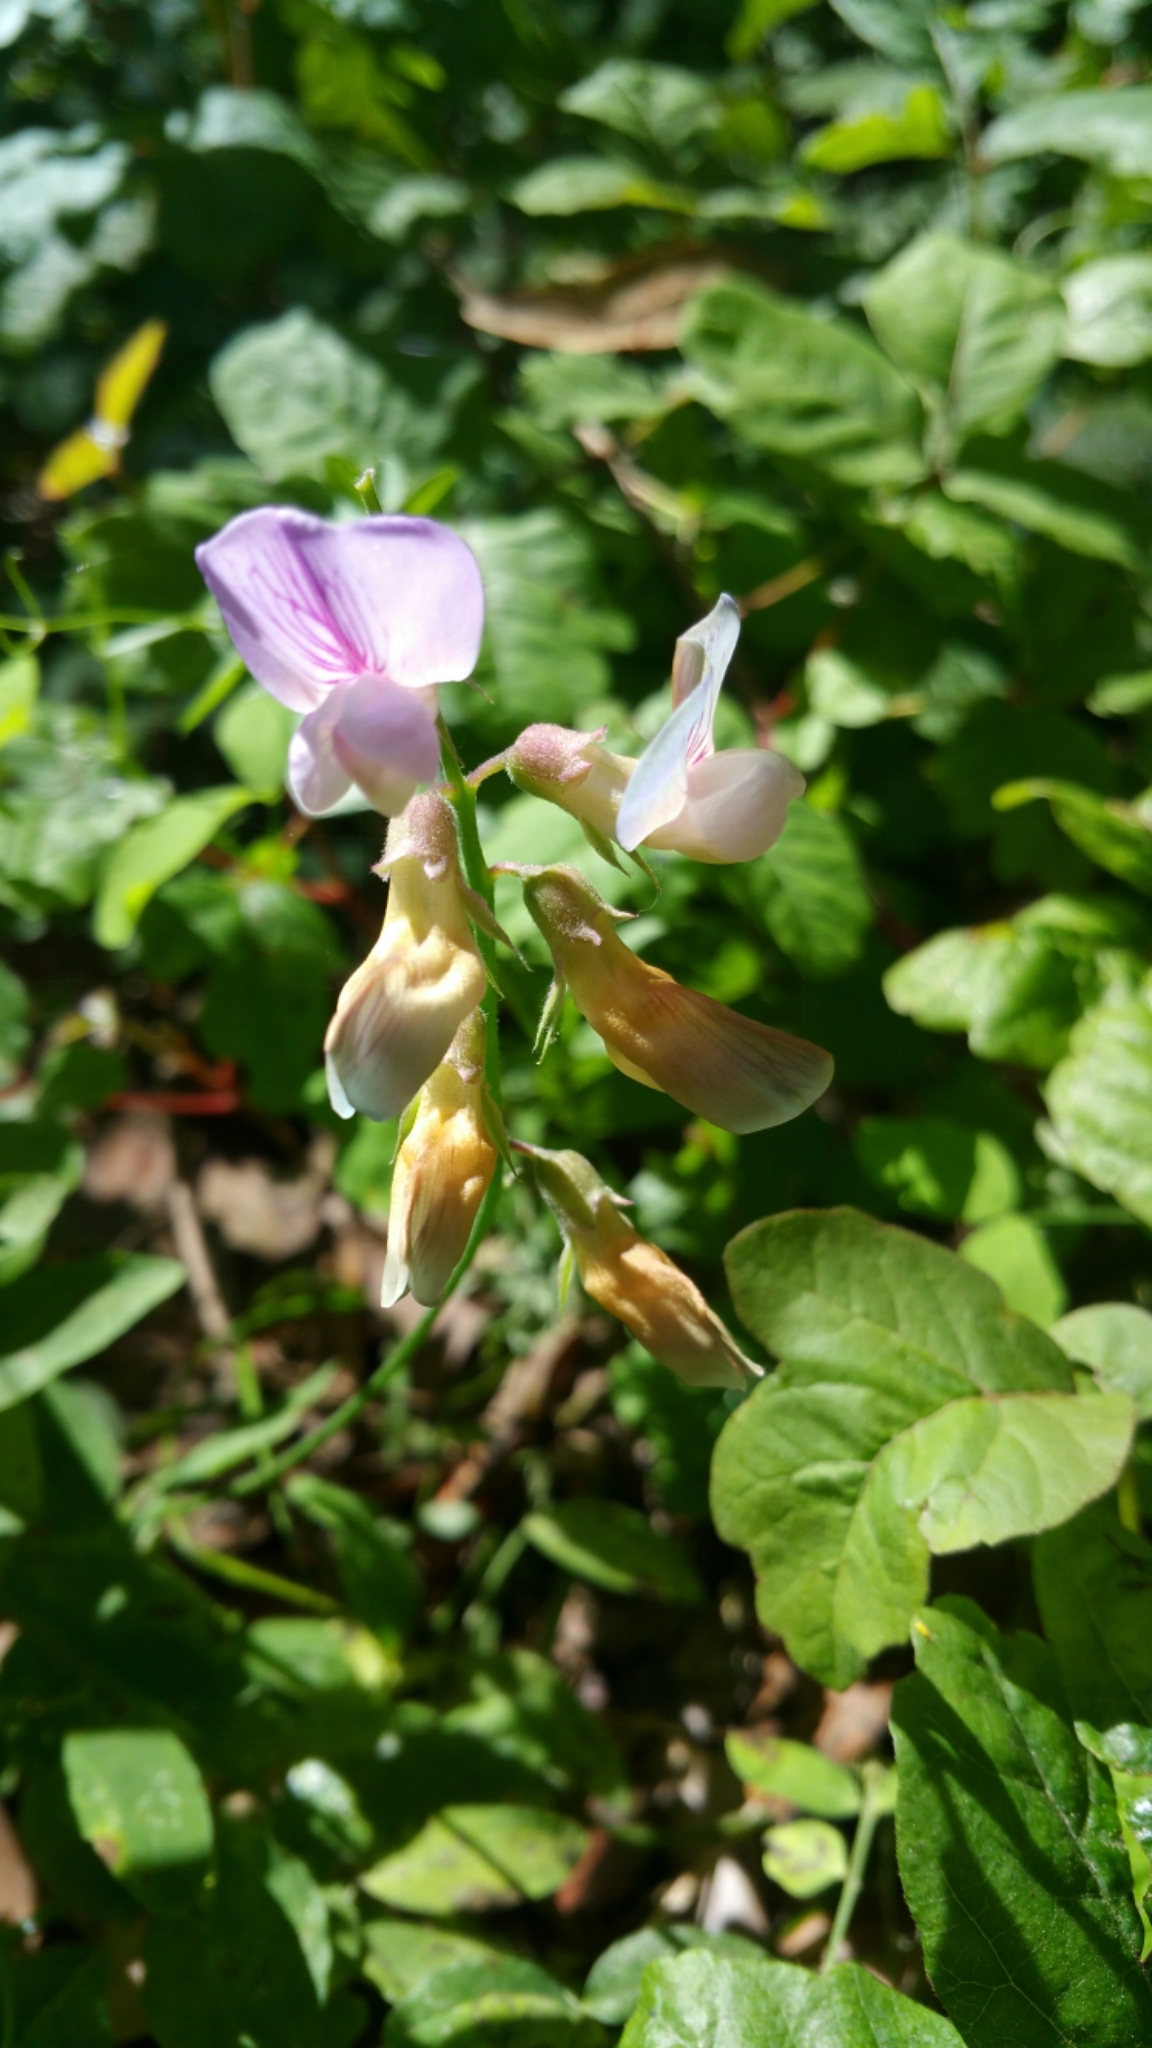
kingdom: Plantae
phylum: Tracheophyta
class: Magnoliopsida
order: Fabales
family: Fabaceae
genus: Lathyrus
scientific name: Lathyrus vestitus
